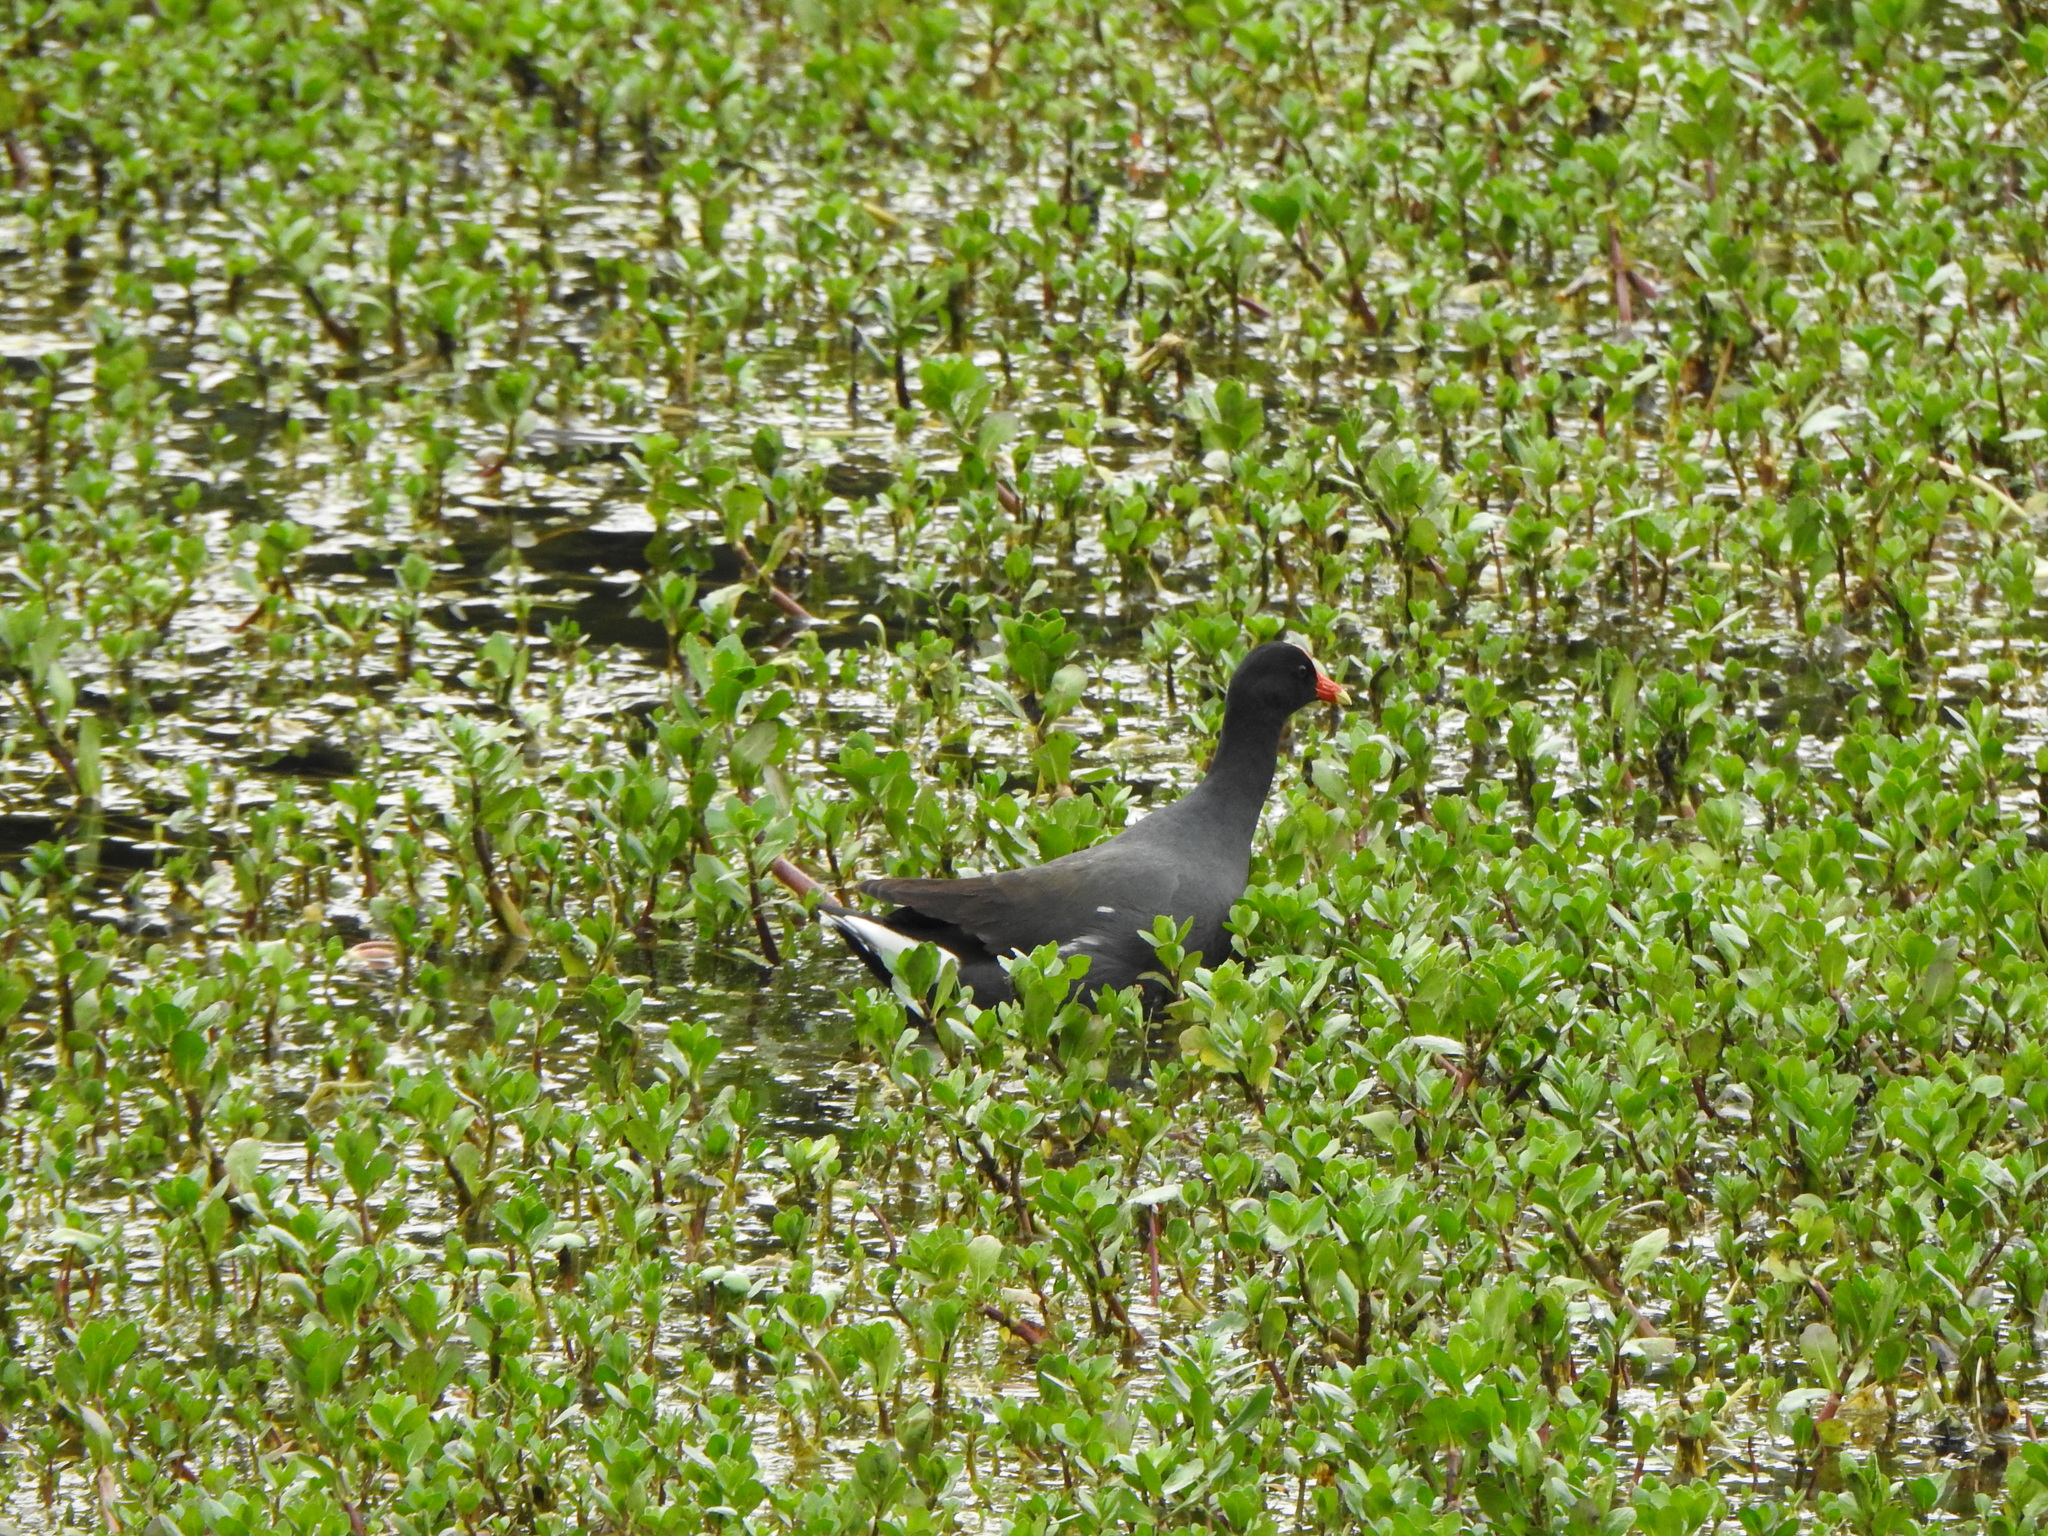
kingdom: Animalia
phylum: Chordata
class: Aves
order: Gruiformes
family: Rallidae
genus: Gallinula
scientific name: Gallinula chloropus
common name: Common moorhen
